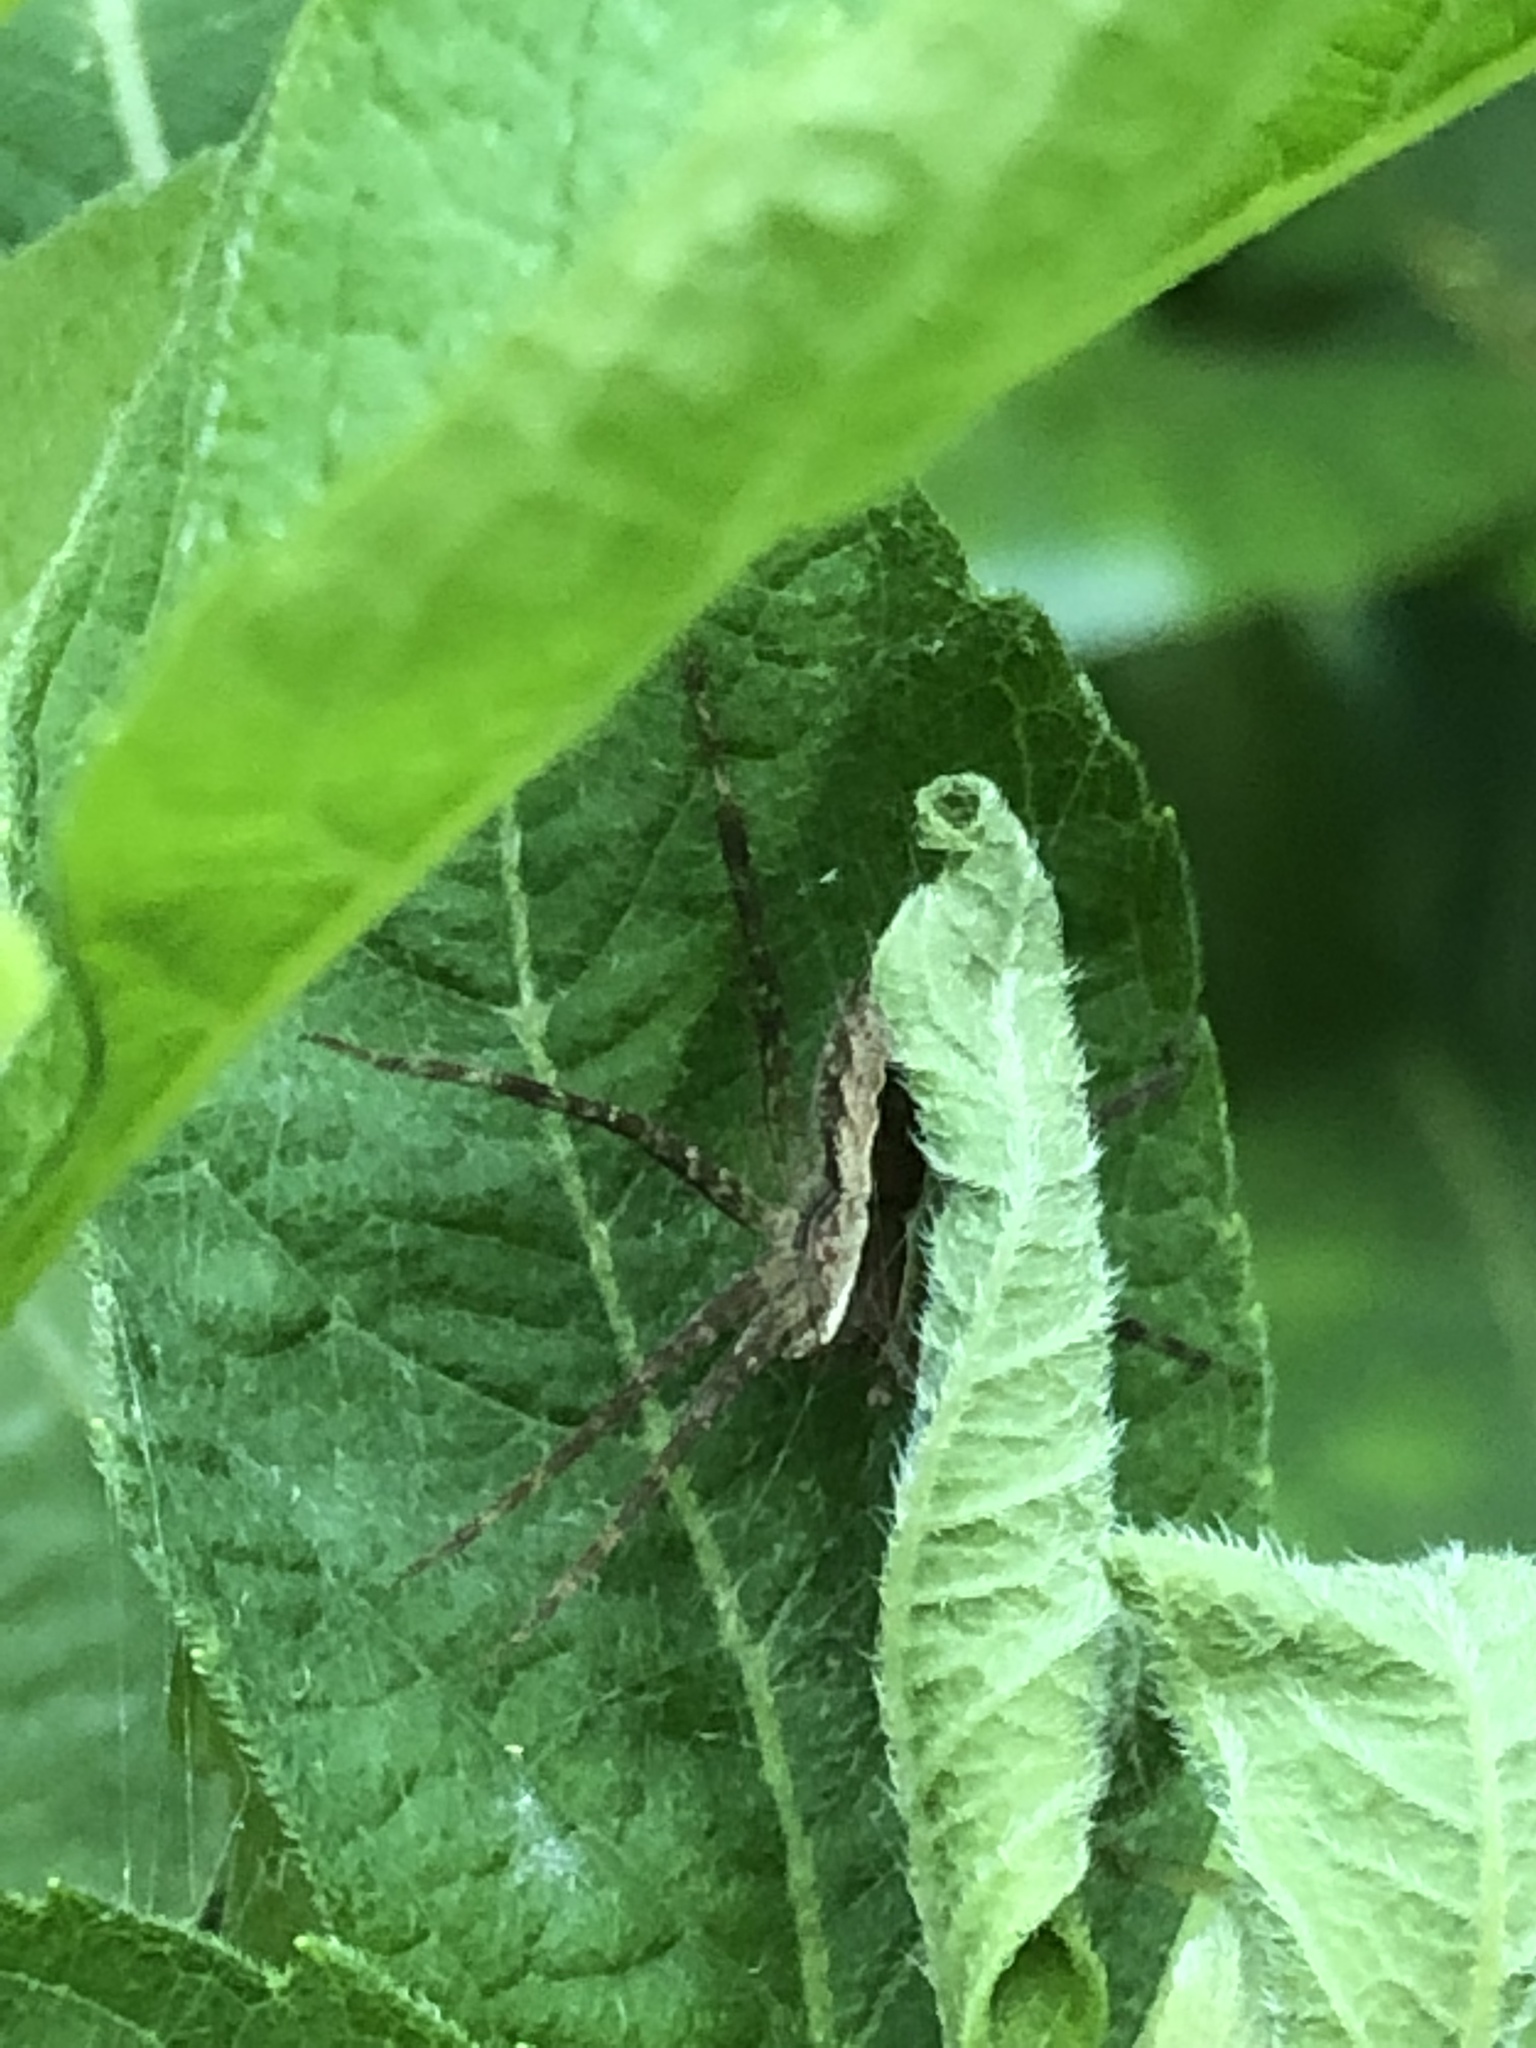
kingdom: Animalia
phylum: Arthropoda
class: Arachnida
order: Araneae
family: Pisauridae
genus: Pisaurina
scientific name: Pisaurina mira
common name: American nursery web spider
